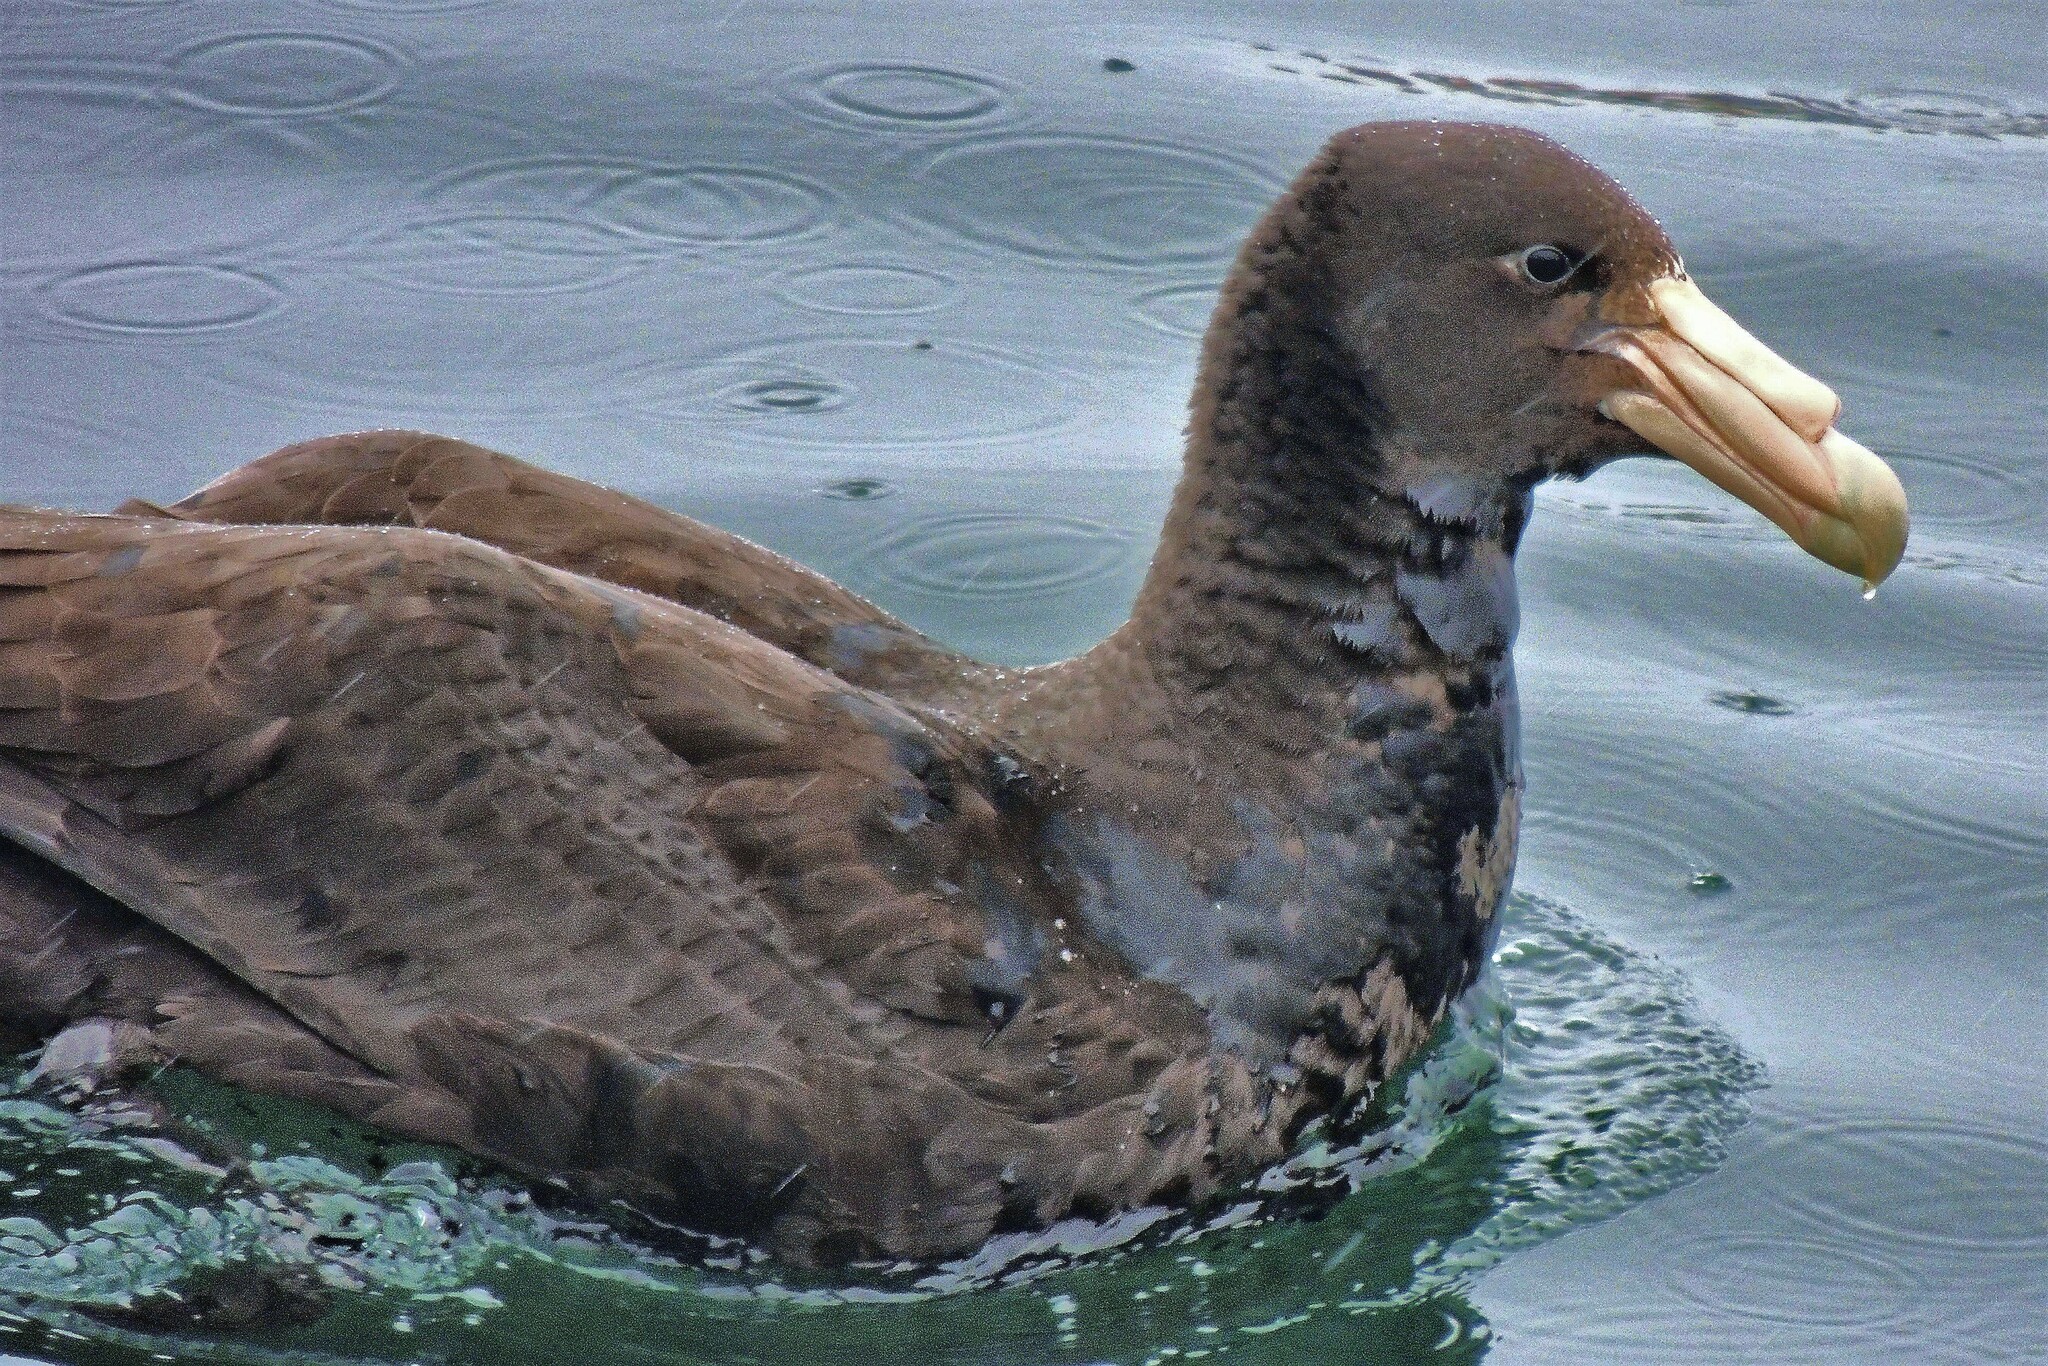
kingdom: Animalia
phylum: Chordata
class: Aves
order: Procellariiformes
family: Procellariidae
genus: Macronectes
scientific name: Macronectes giganteus
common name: Southern giant petrel
